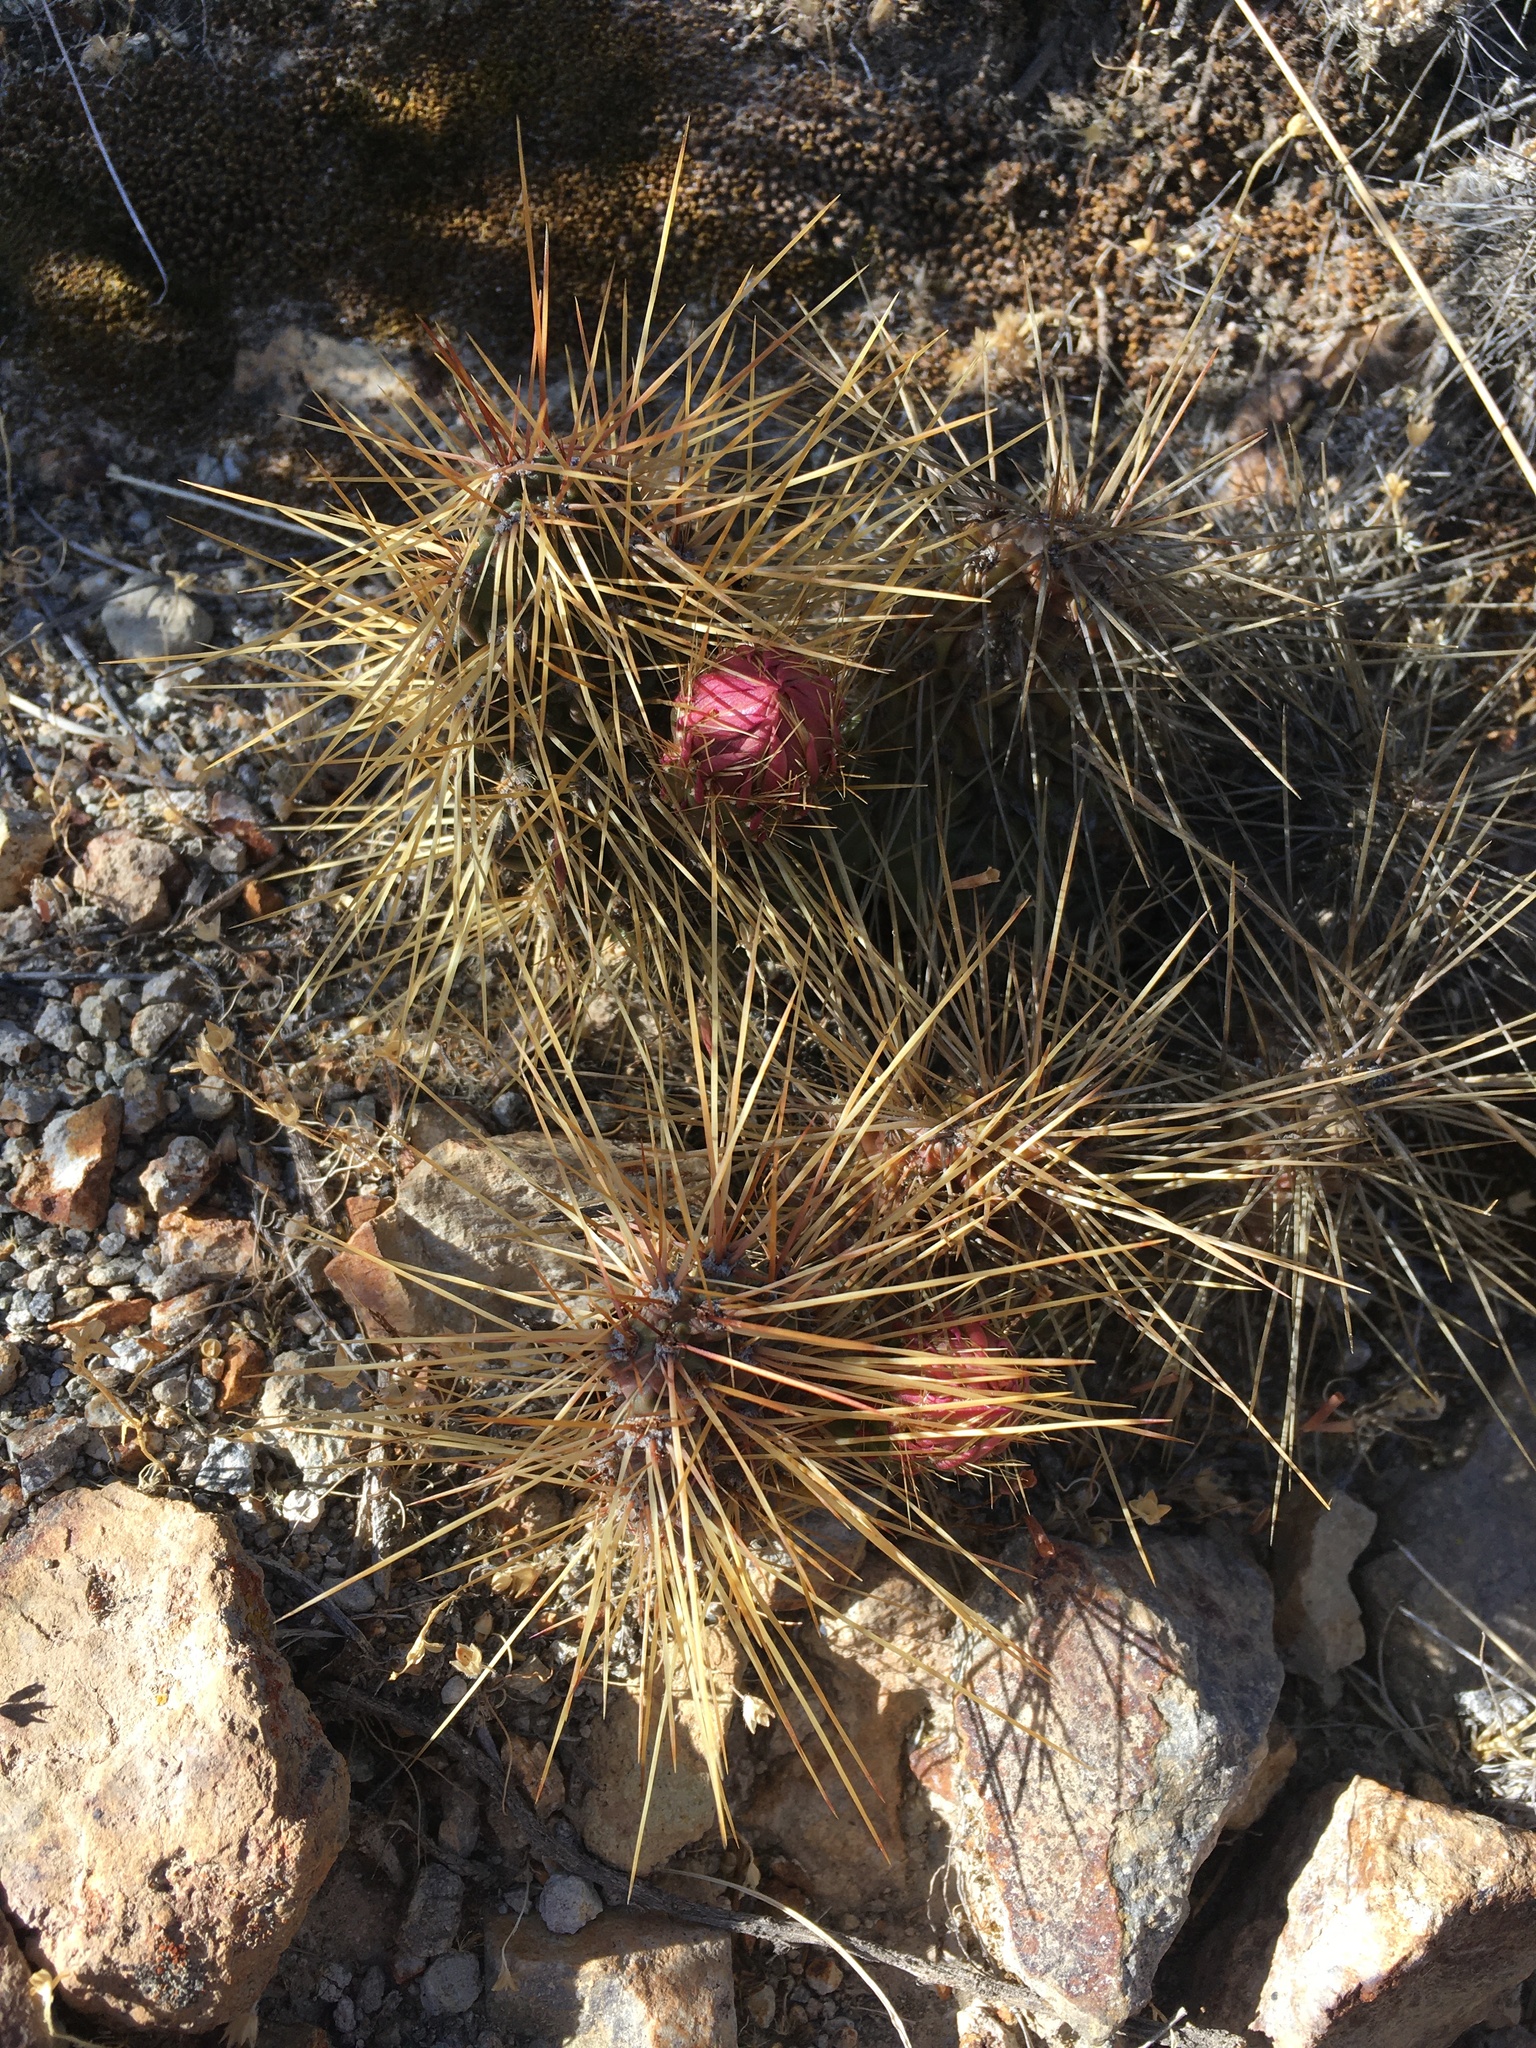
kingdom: Plantae
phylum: Tracheophyta
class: Magnoliopsida
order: Caryophyllales
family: Cactaceae
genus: Airampoa
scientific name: Airampoa soehrensii
